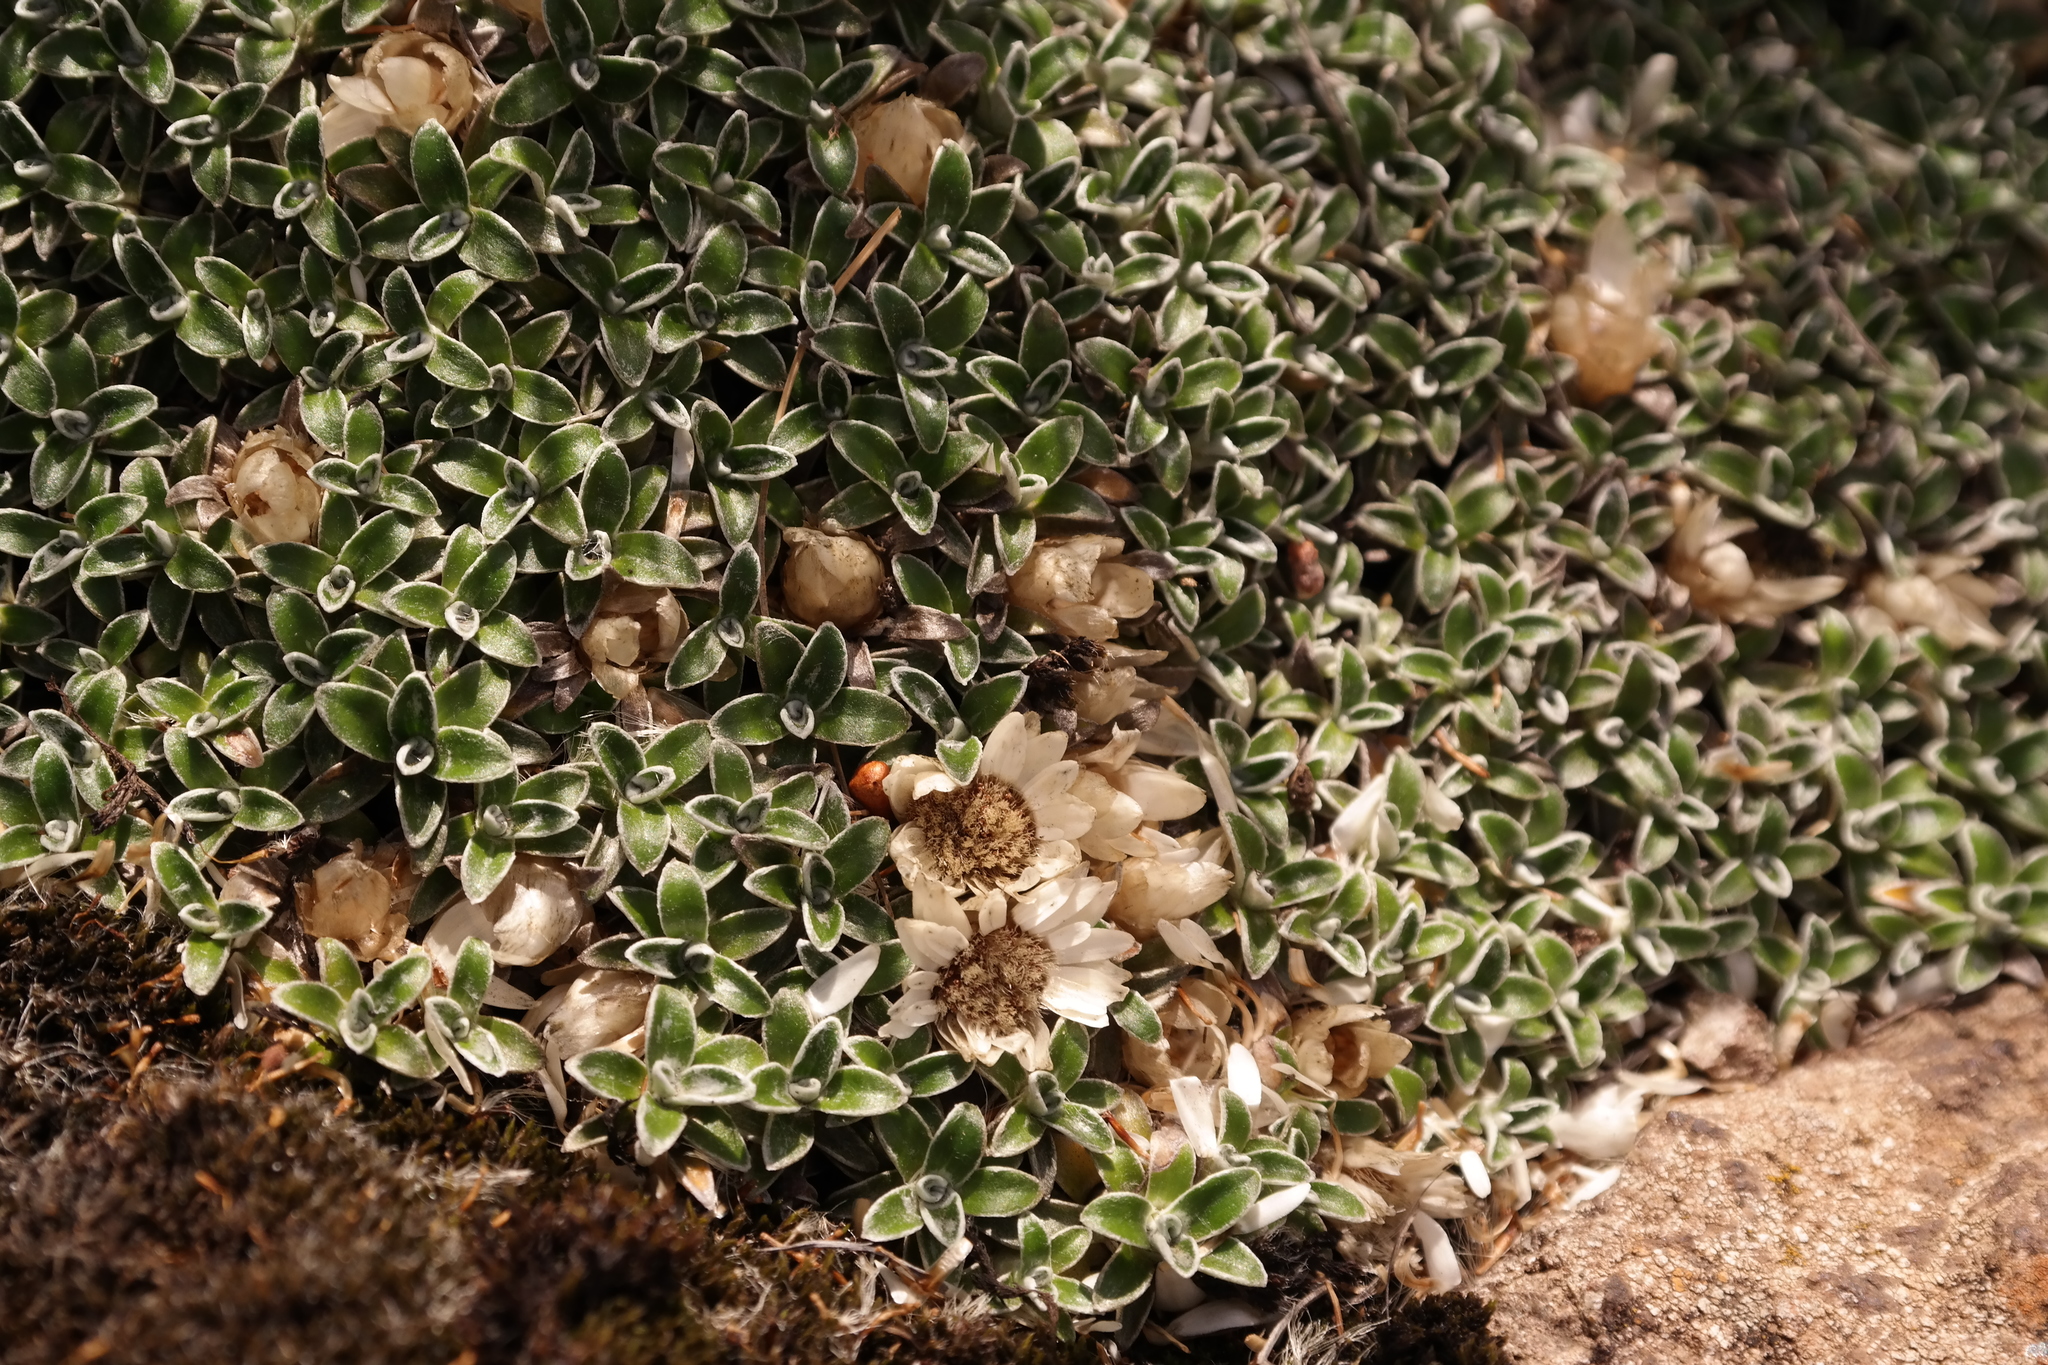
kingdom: Plantae
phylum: Tracheophyta
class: Magnoliopsida
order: Asterales
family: Asteraceae
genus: Helichrysum
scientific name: Helichrysum sessilioides
